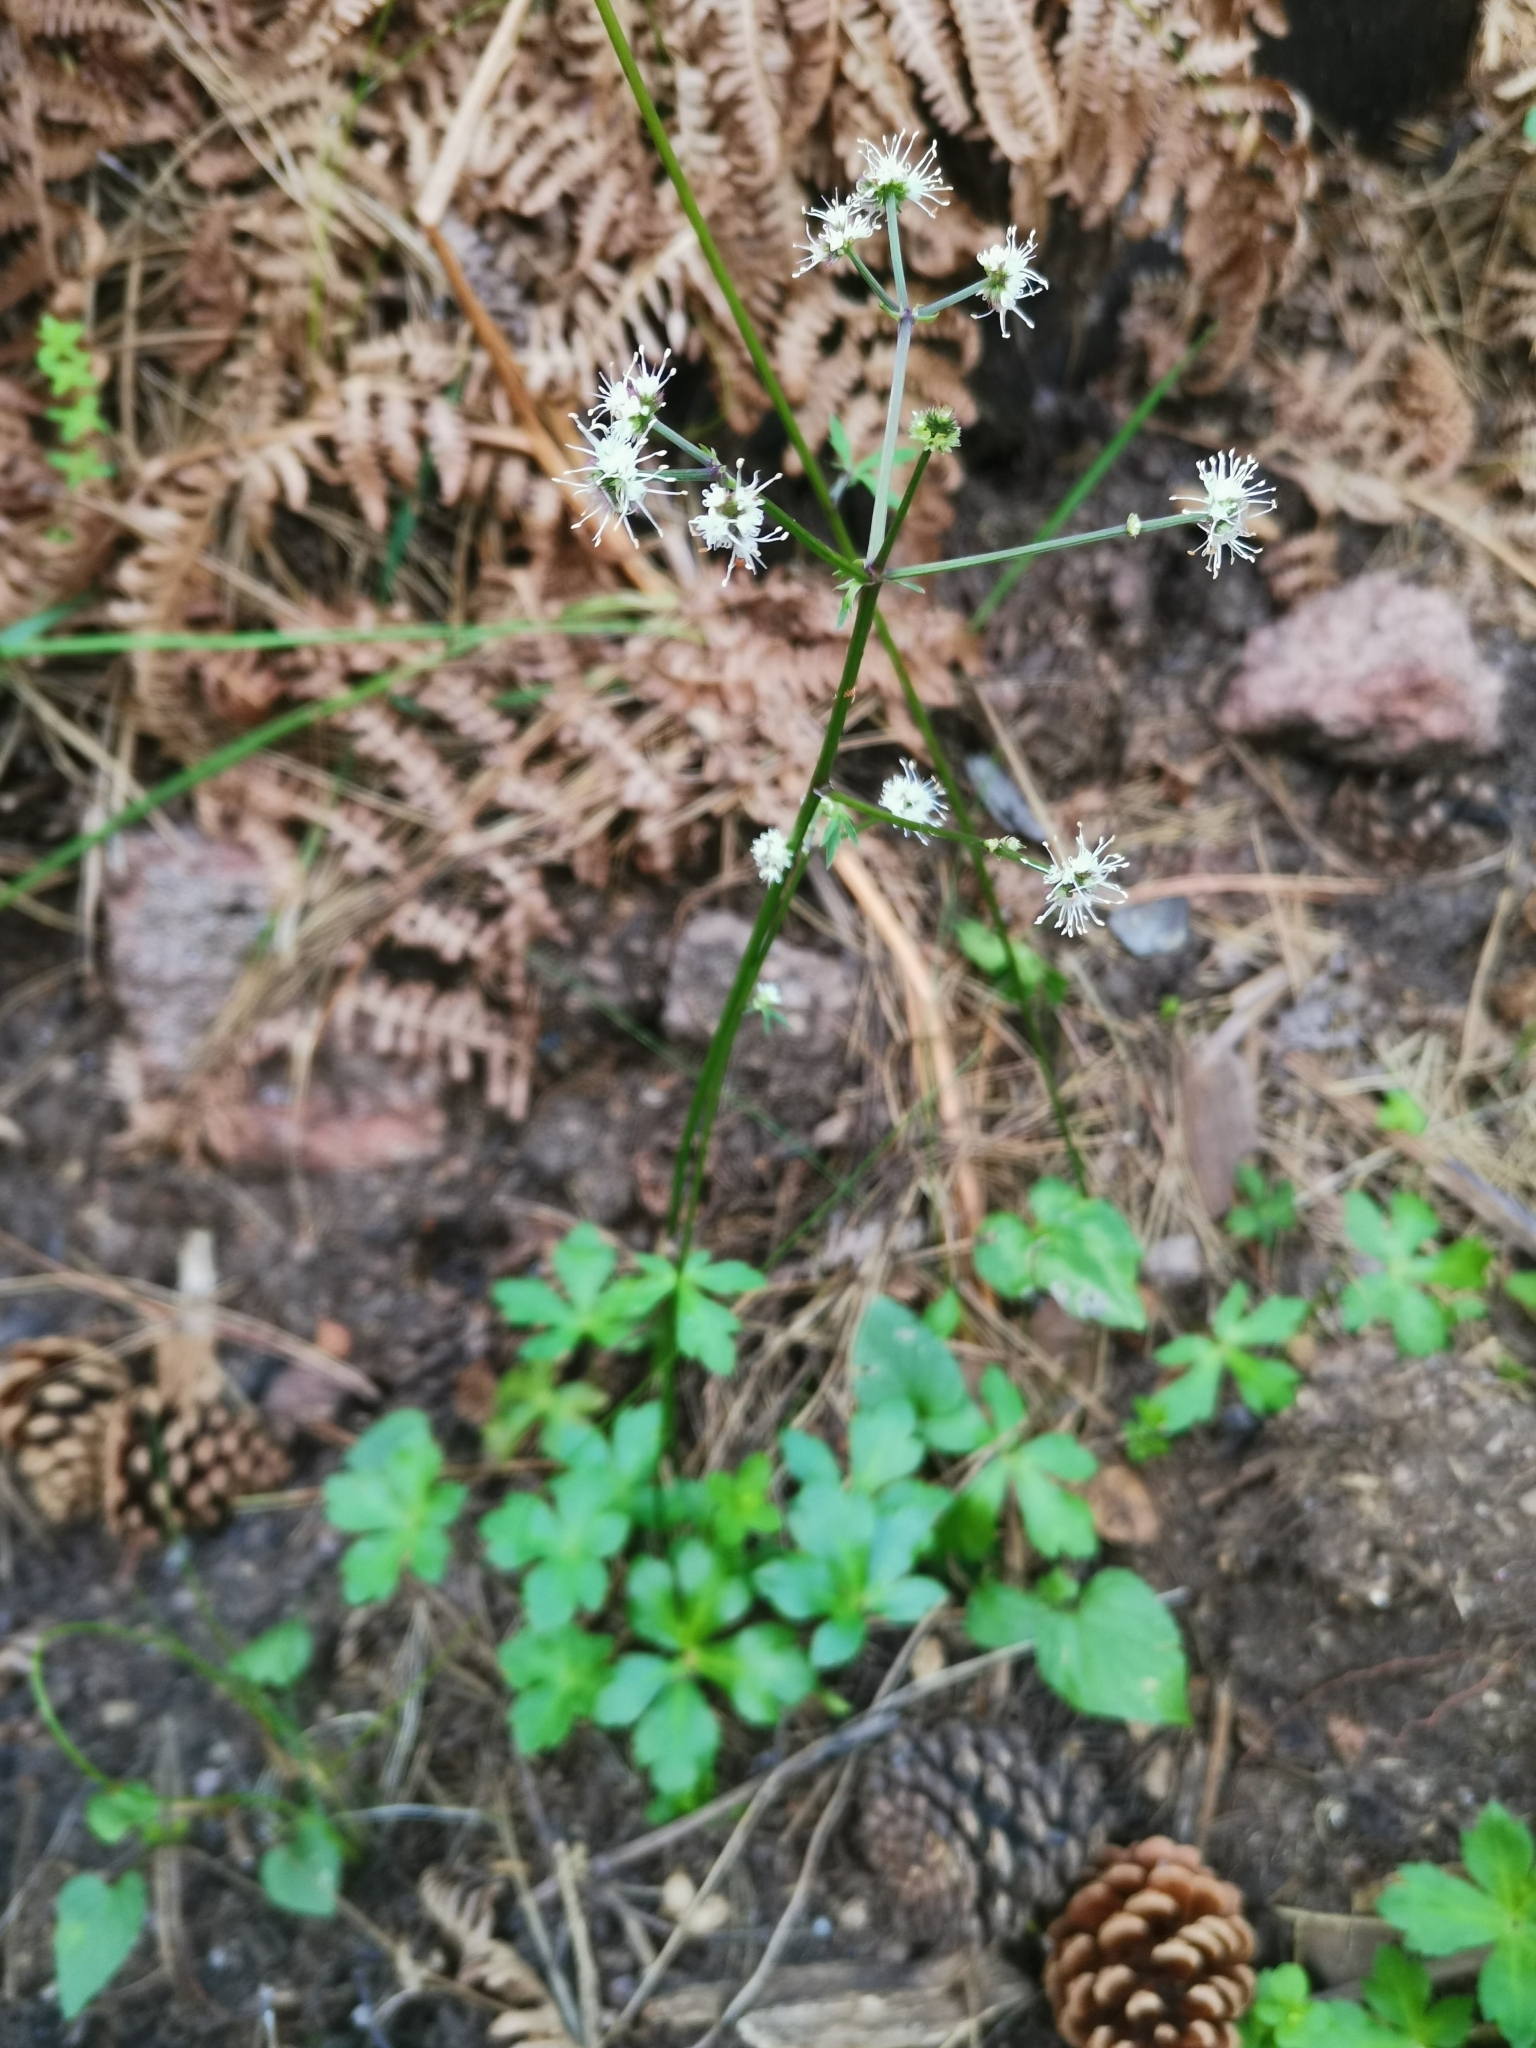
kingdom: Plantae
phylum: Tracheophyta
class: Magnoliopsida
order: Apiales
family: Apiaceae
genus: Sanicula
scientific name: Sanicula europaea
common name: Sanicle
